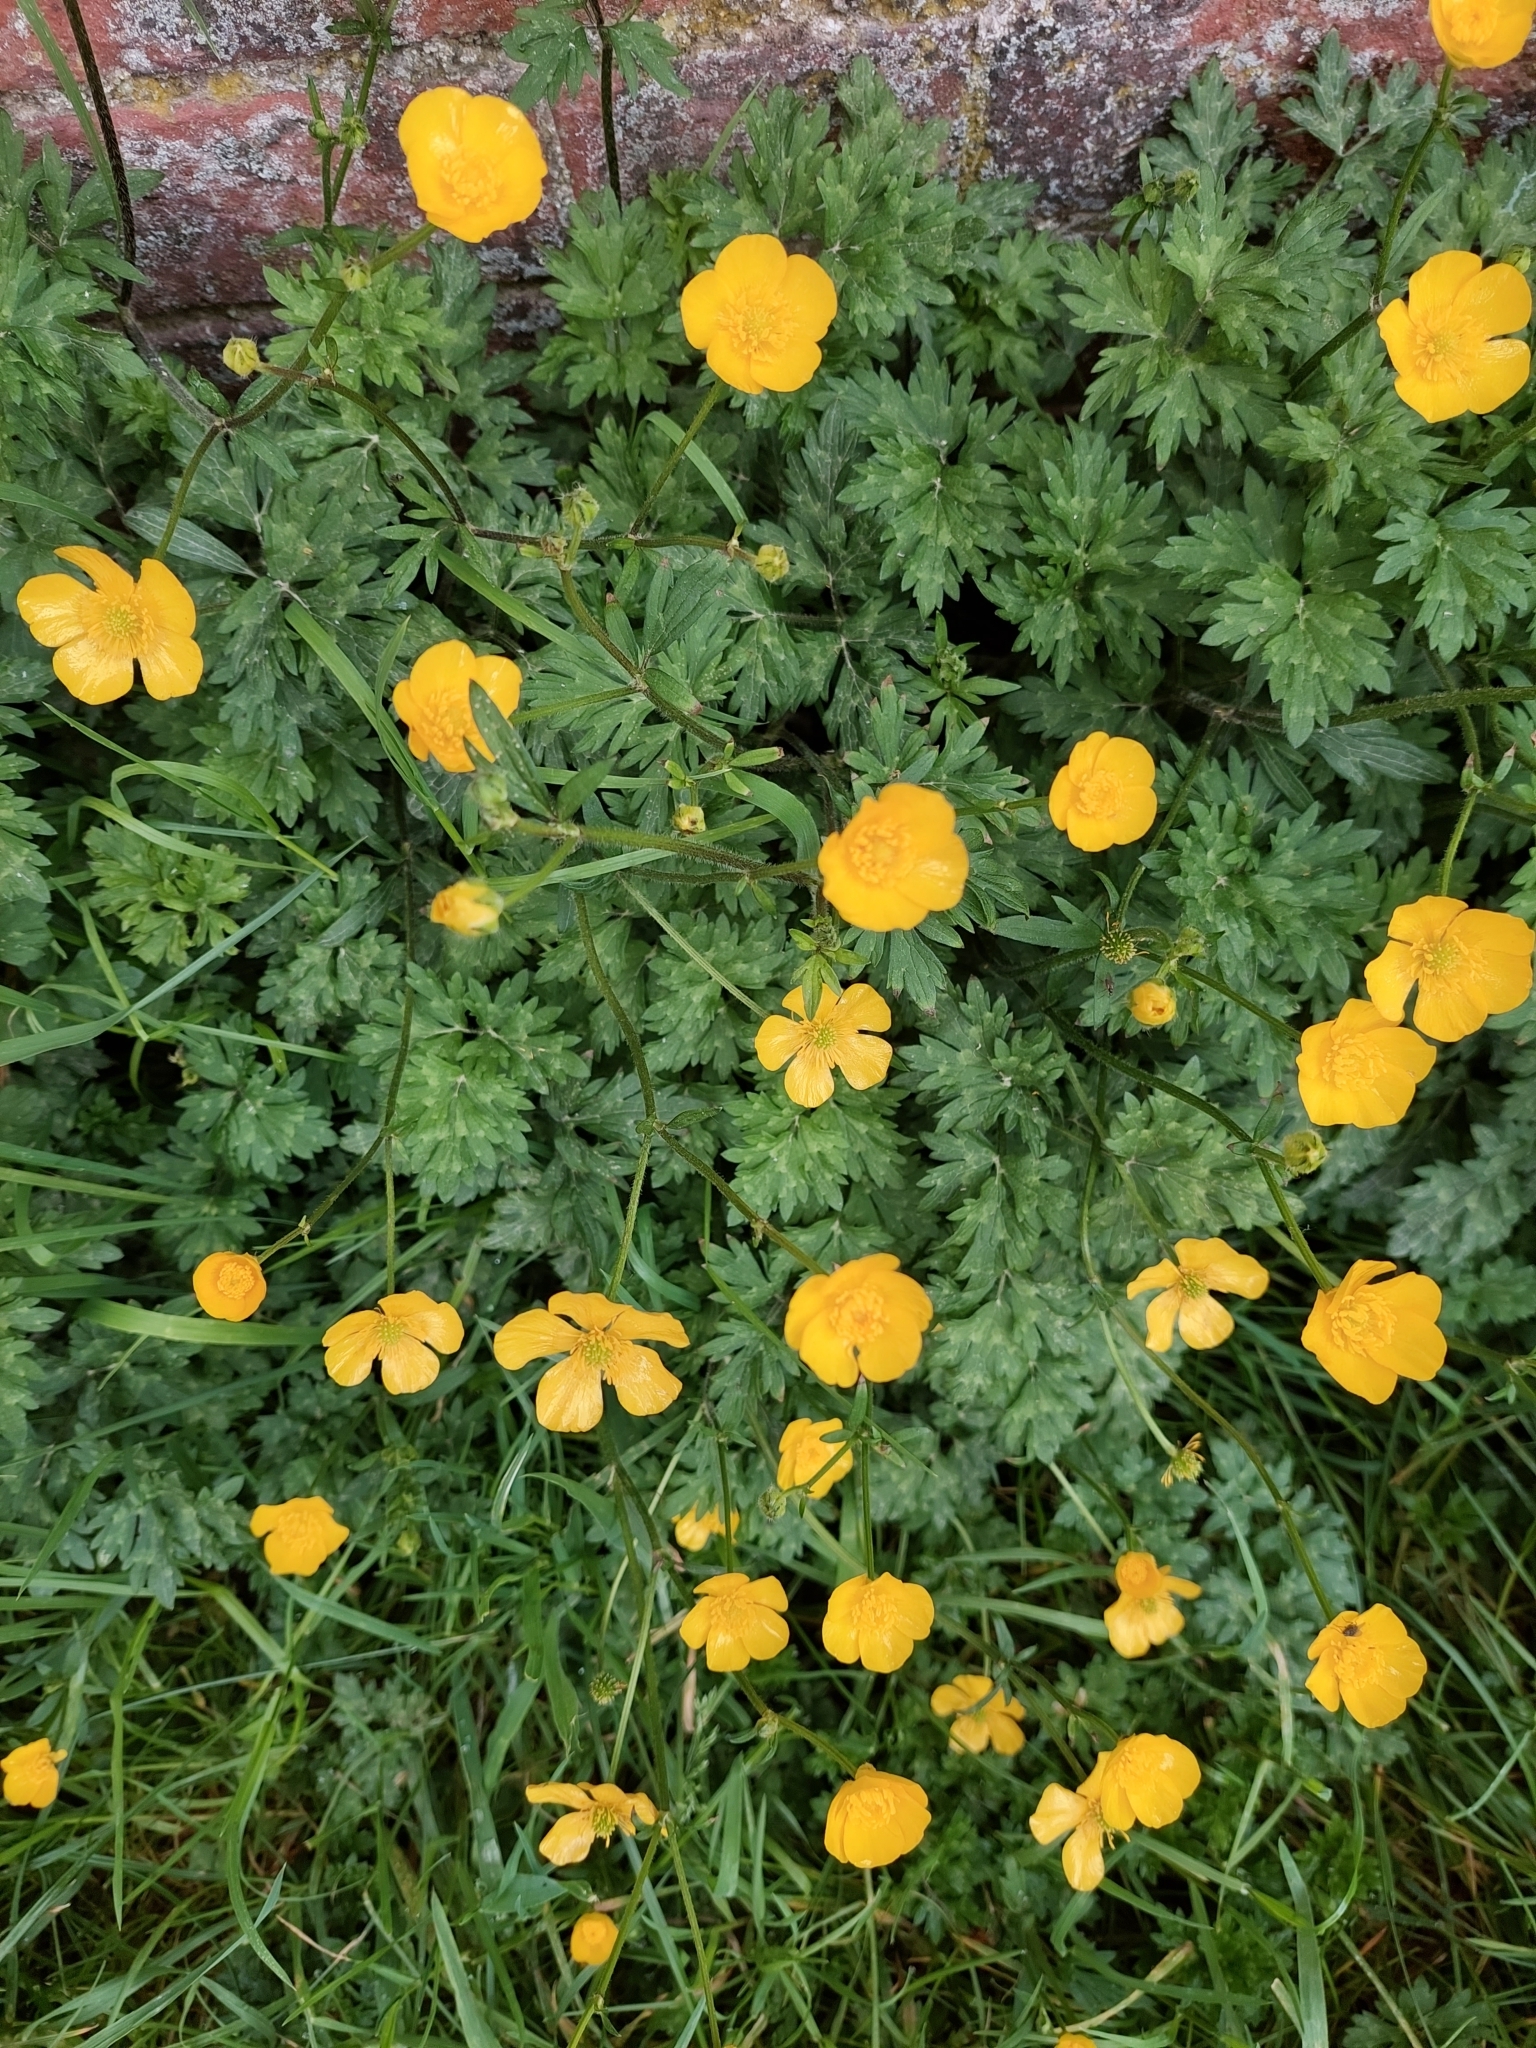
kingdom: Plantae
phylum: Tracheophyta
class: Magnoliopsida
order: Ranunculales
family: Ranunculaceae
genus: Ranunculus
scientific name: Ranunculus repens
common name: Creeping buttercup
